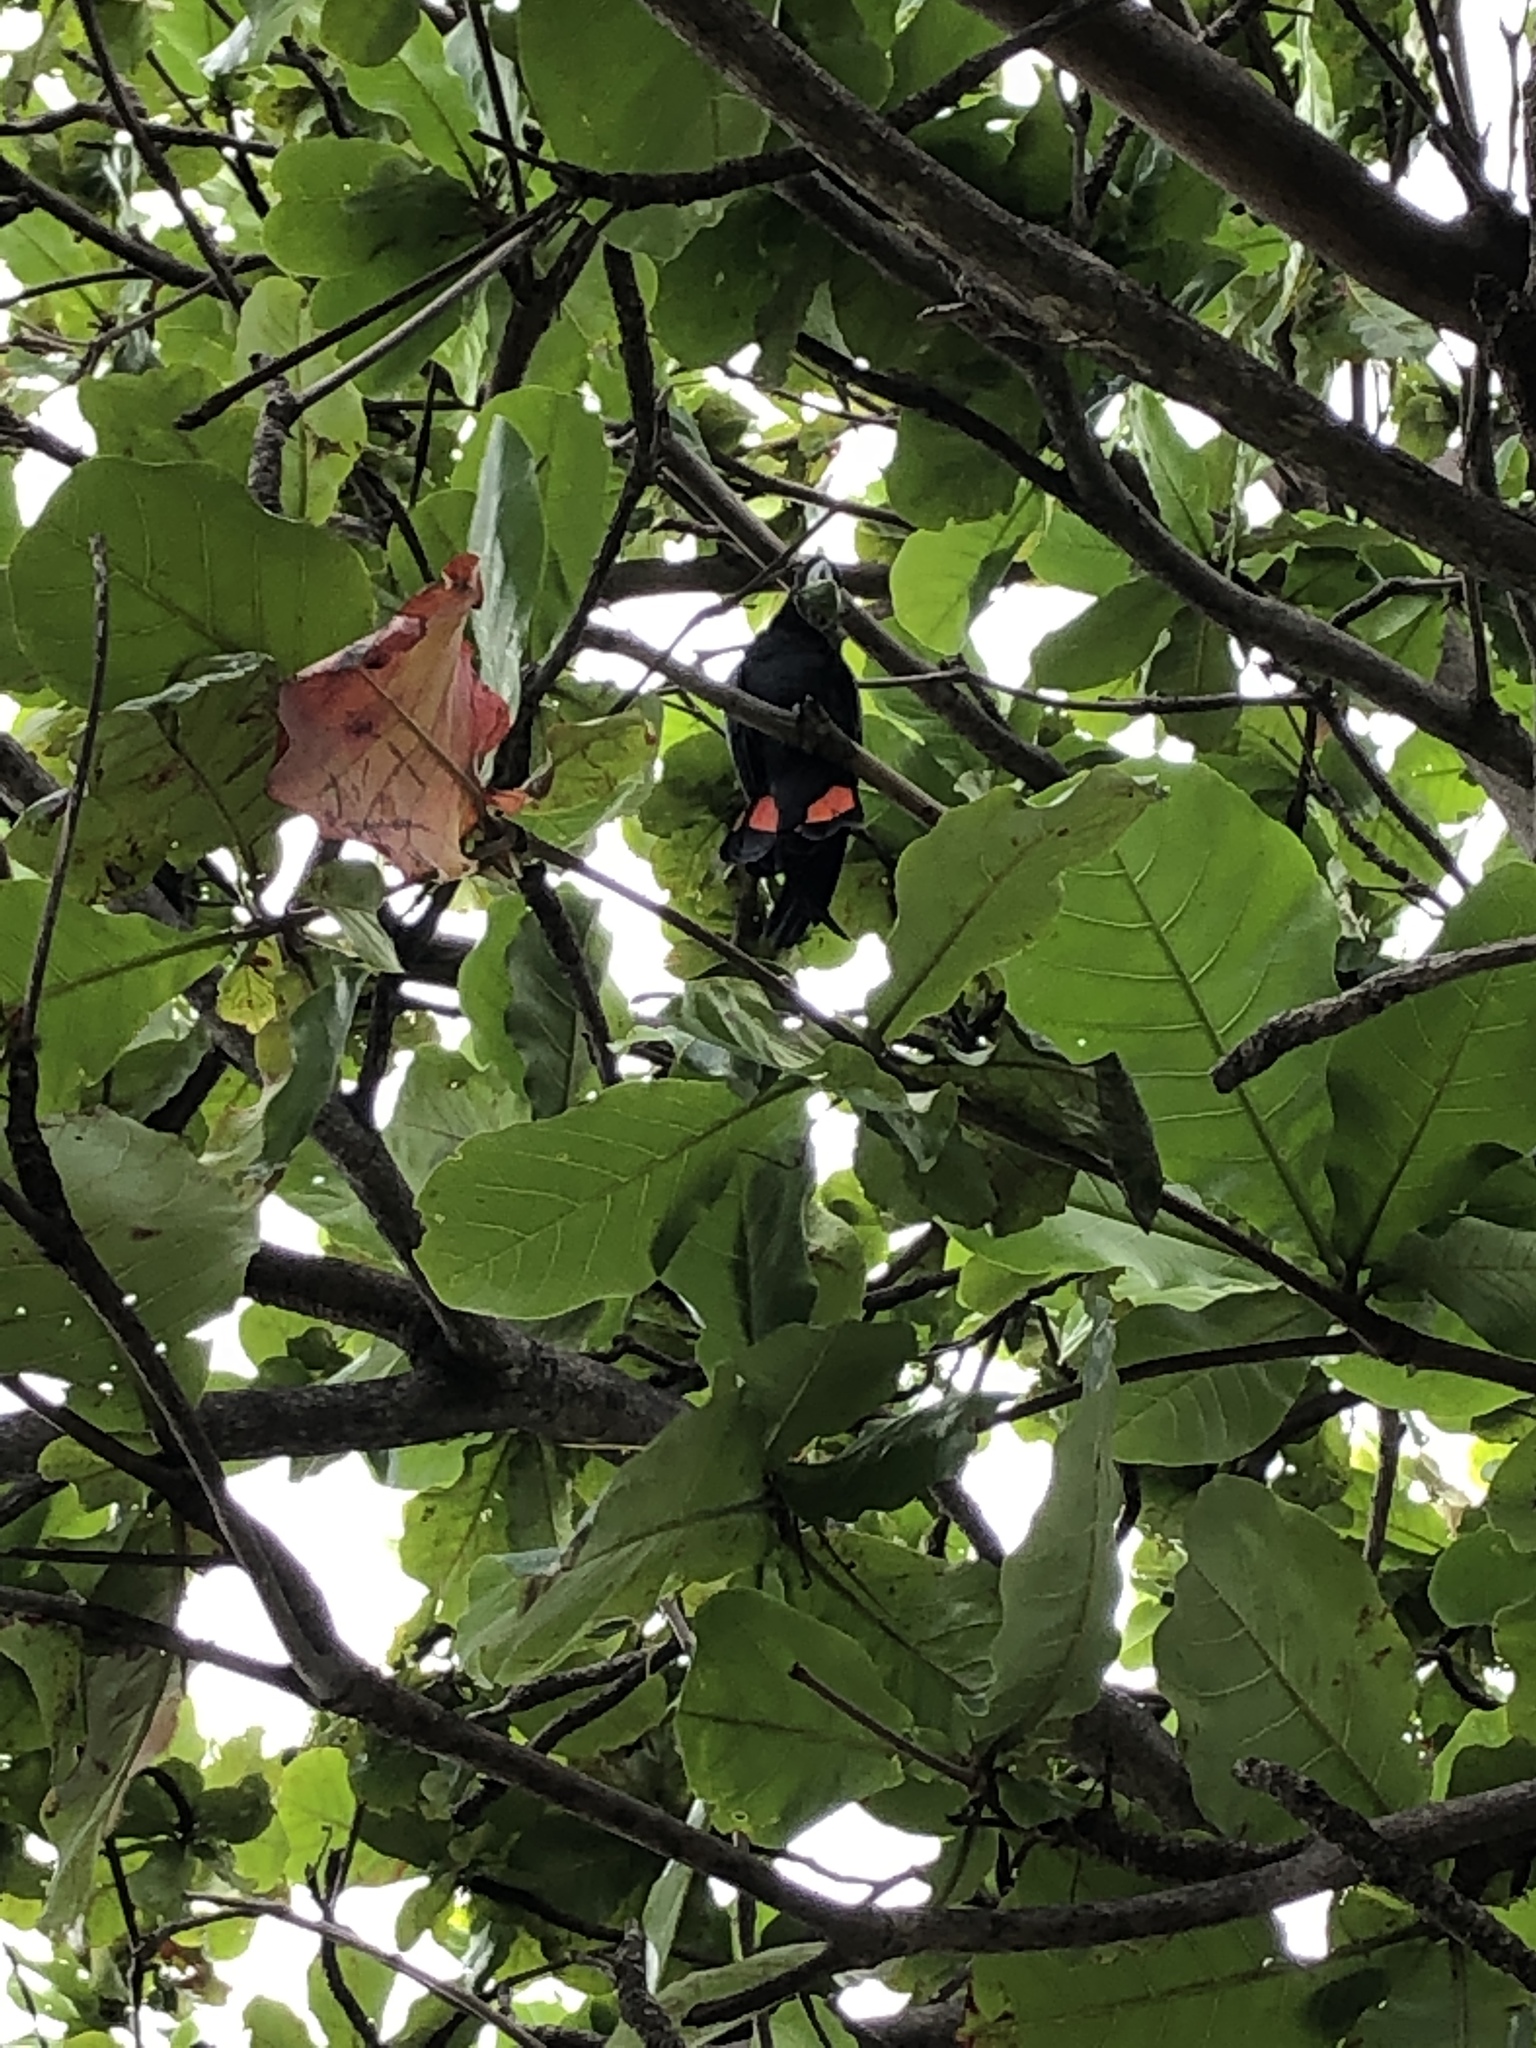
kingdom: Animalia
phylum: Chordata
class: Aves
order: Psittaciformes
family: Psittacidae
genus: Calyptorhynchus
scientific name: Calyptorhynchus banksii
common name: Red-tailed black cockatoo
